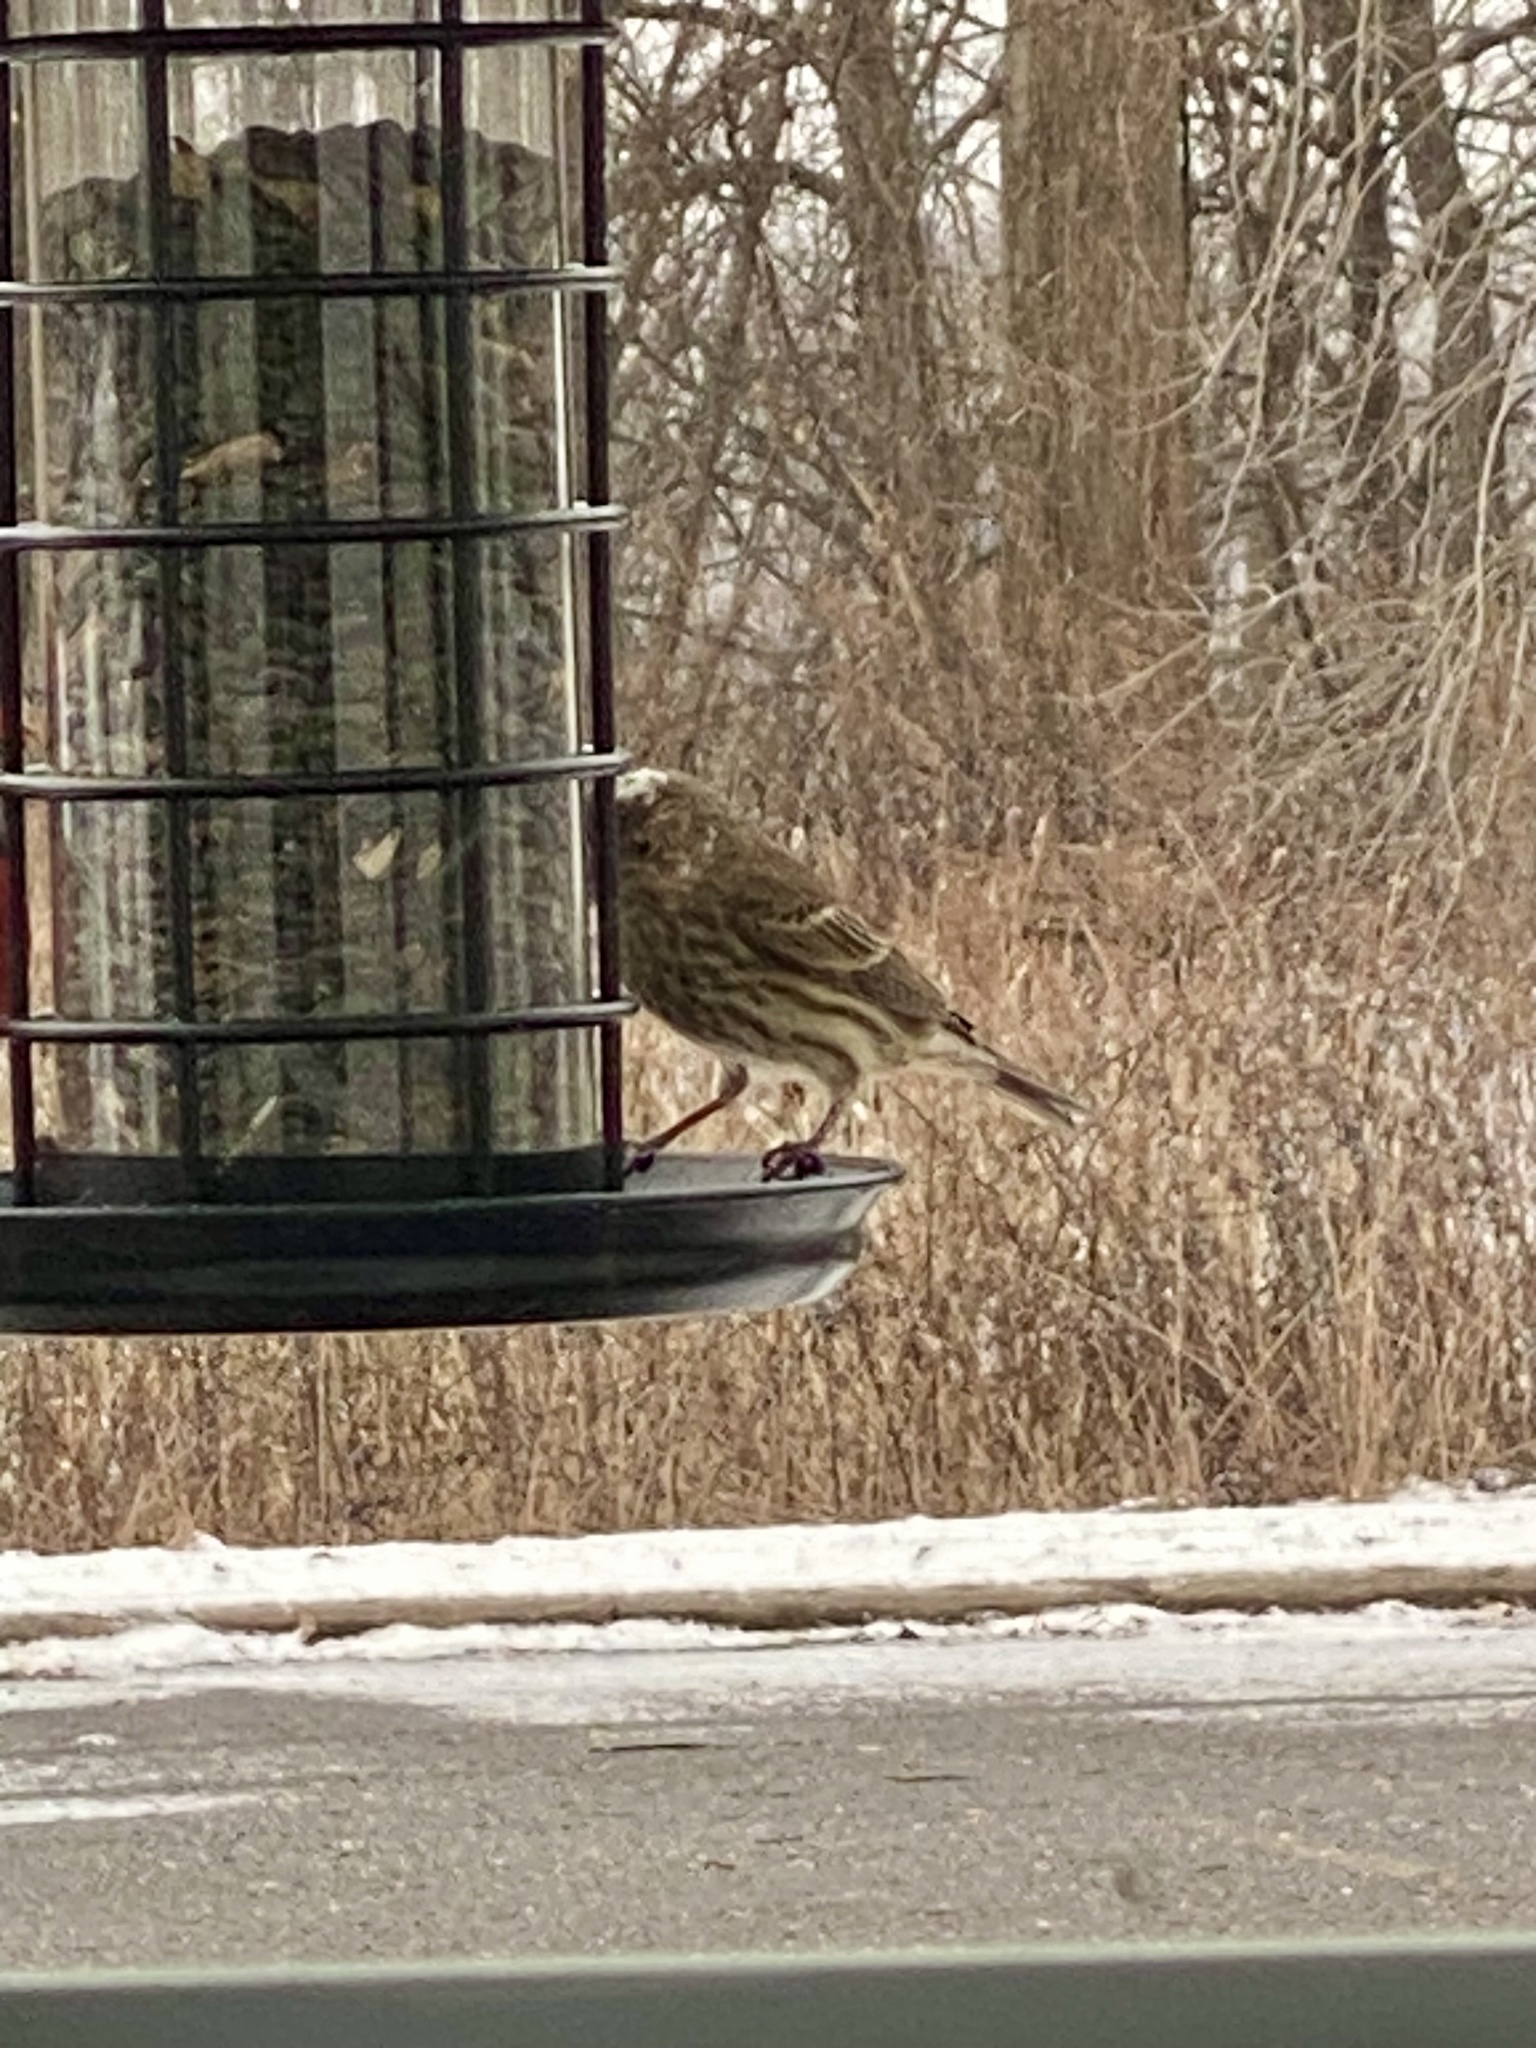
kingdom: Animalia
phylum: Chordata
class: Aves
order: Passeriformes
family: Fringillidae
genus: Haemorhous
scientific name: Haemorhous mexicanus
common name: House finch
